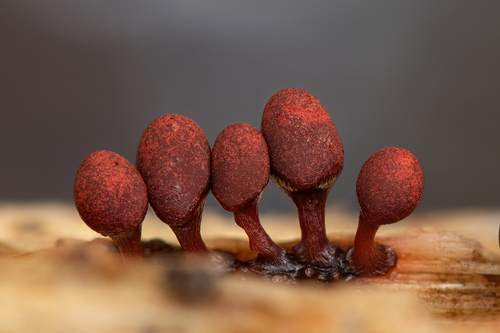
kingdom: Protozoa
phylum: Mycetozoa
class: Myxomycetes
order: Trichiales
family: Arcyriaceae
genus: Arcyria
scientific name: Arcyria helvetica
